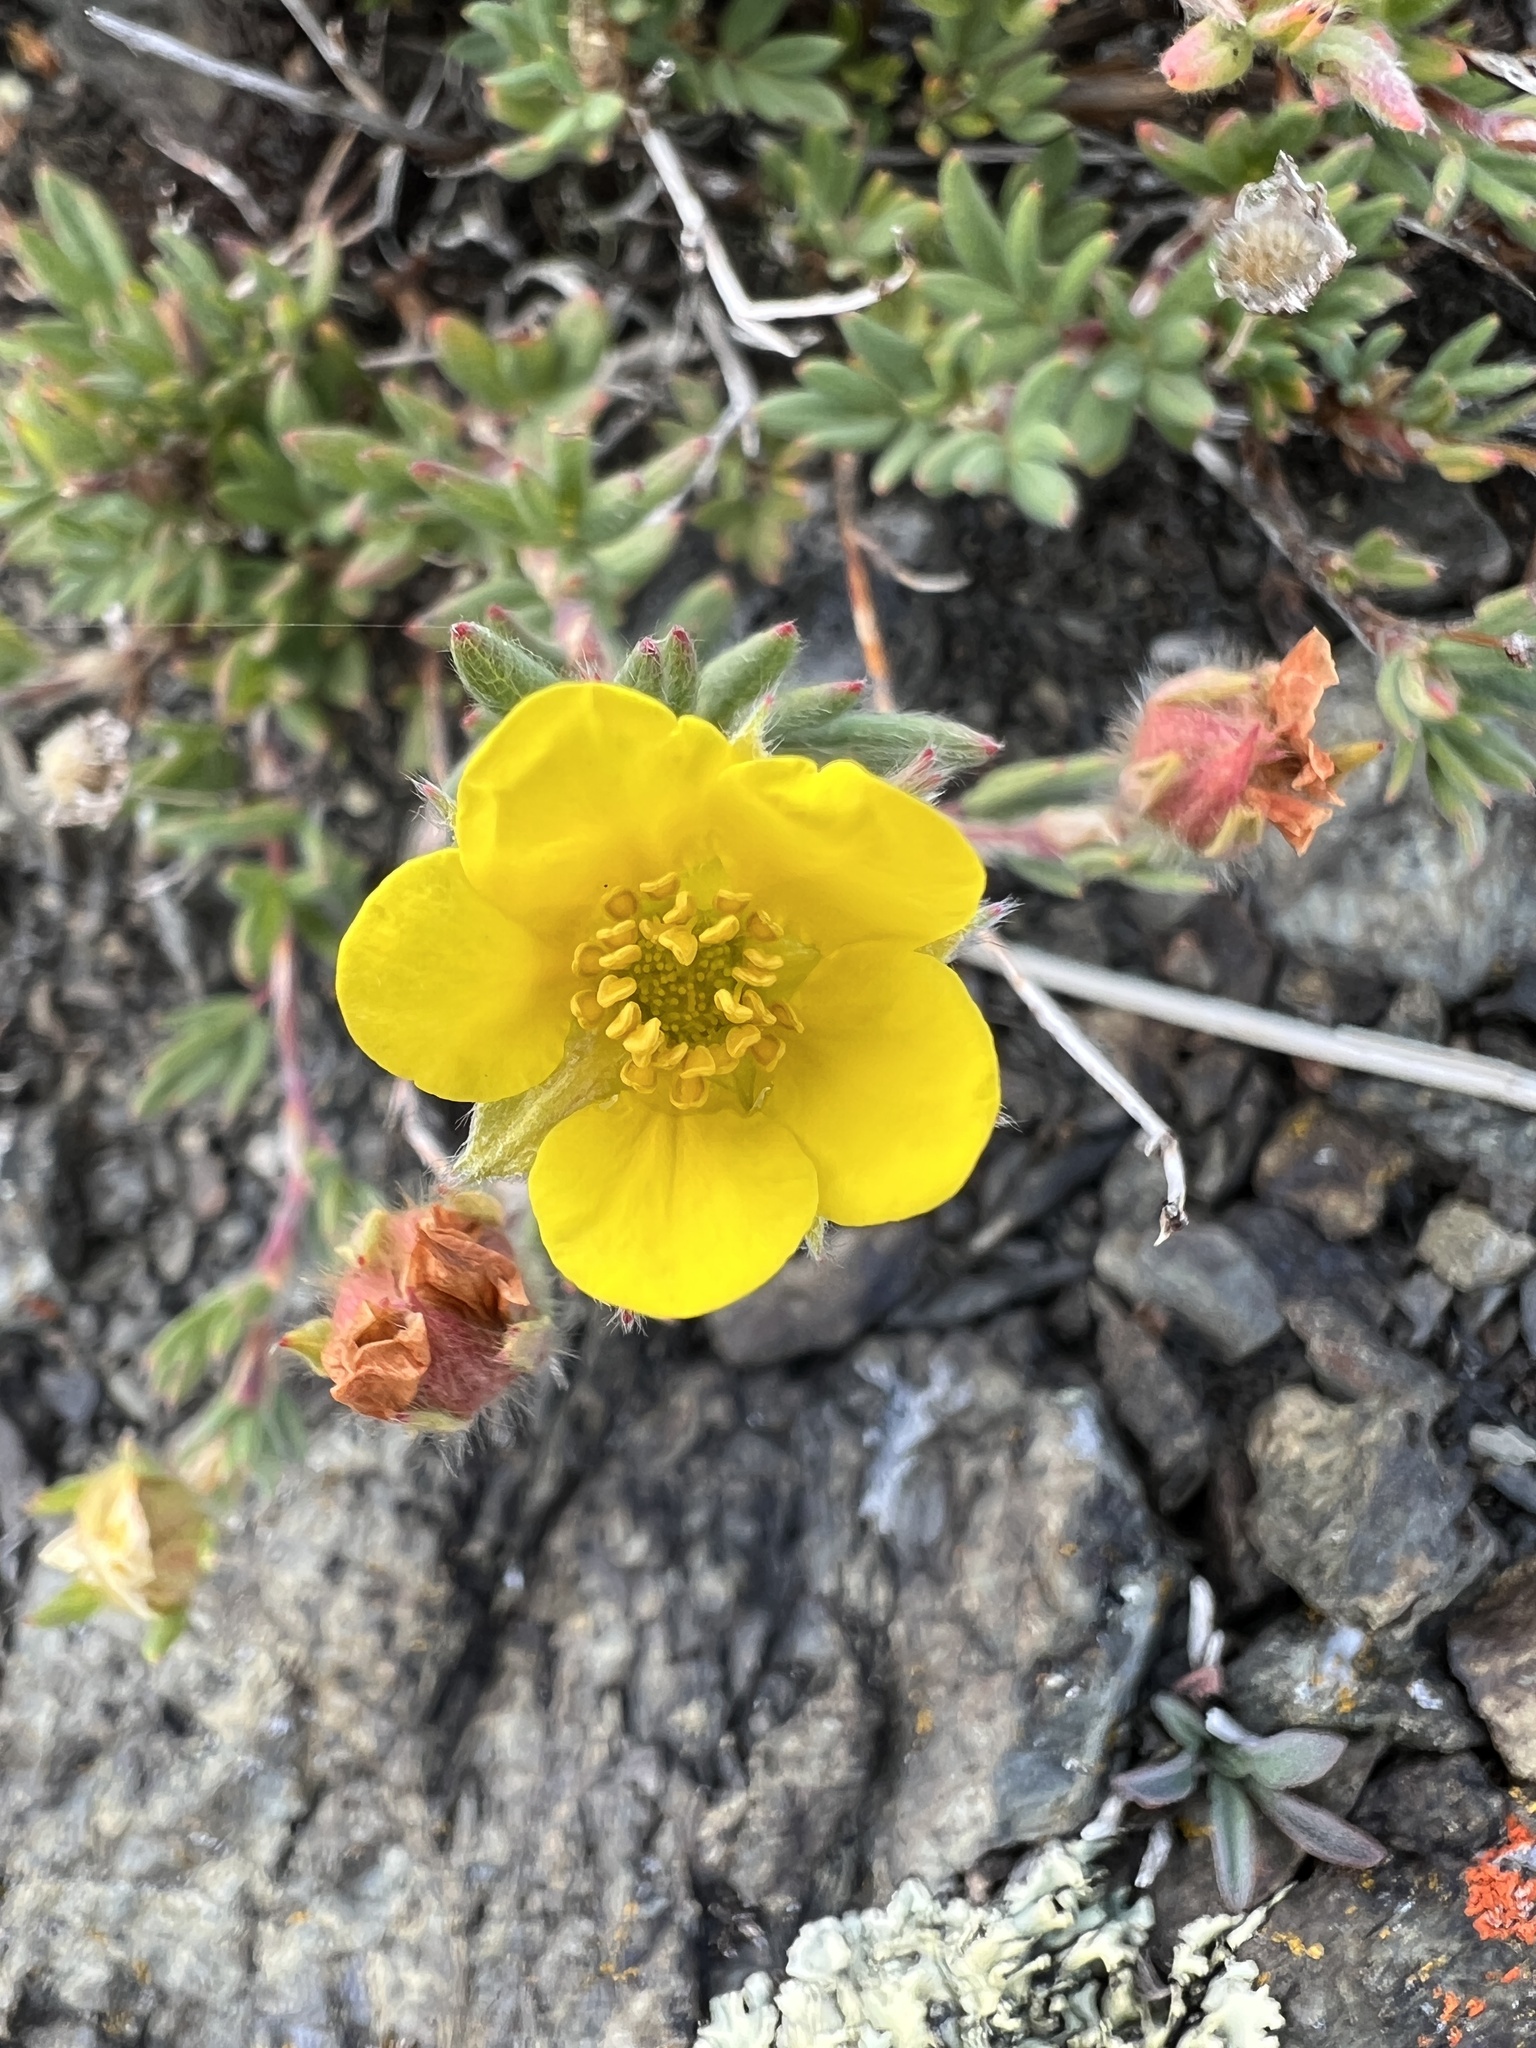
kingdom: Plantae
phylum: Tracheophyta
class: Magnoliopsida
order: Rosales
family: Rosaceae
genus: Dasiphora
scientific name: Dasiphora fruticosa
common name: Shrubby cinquefoil
